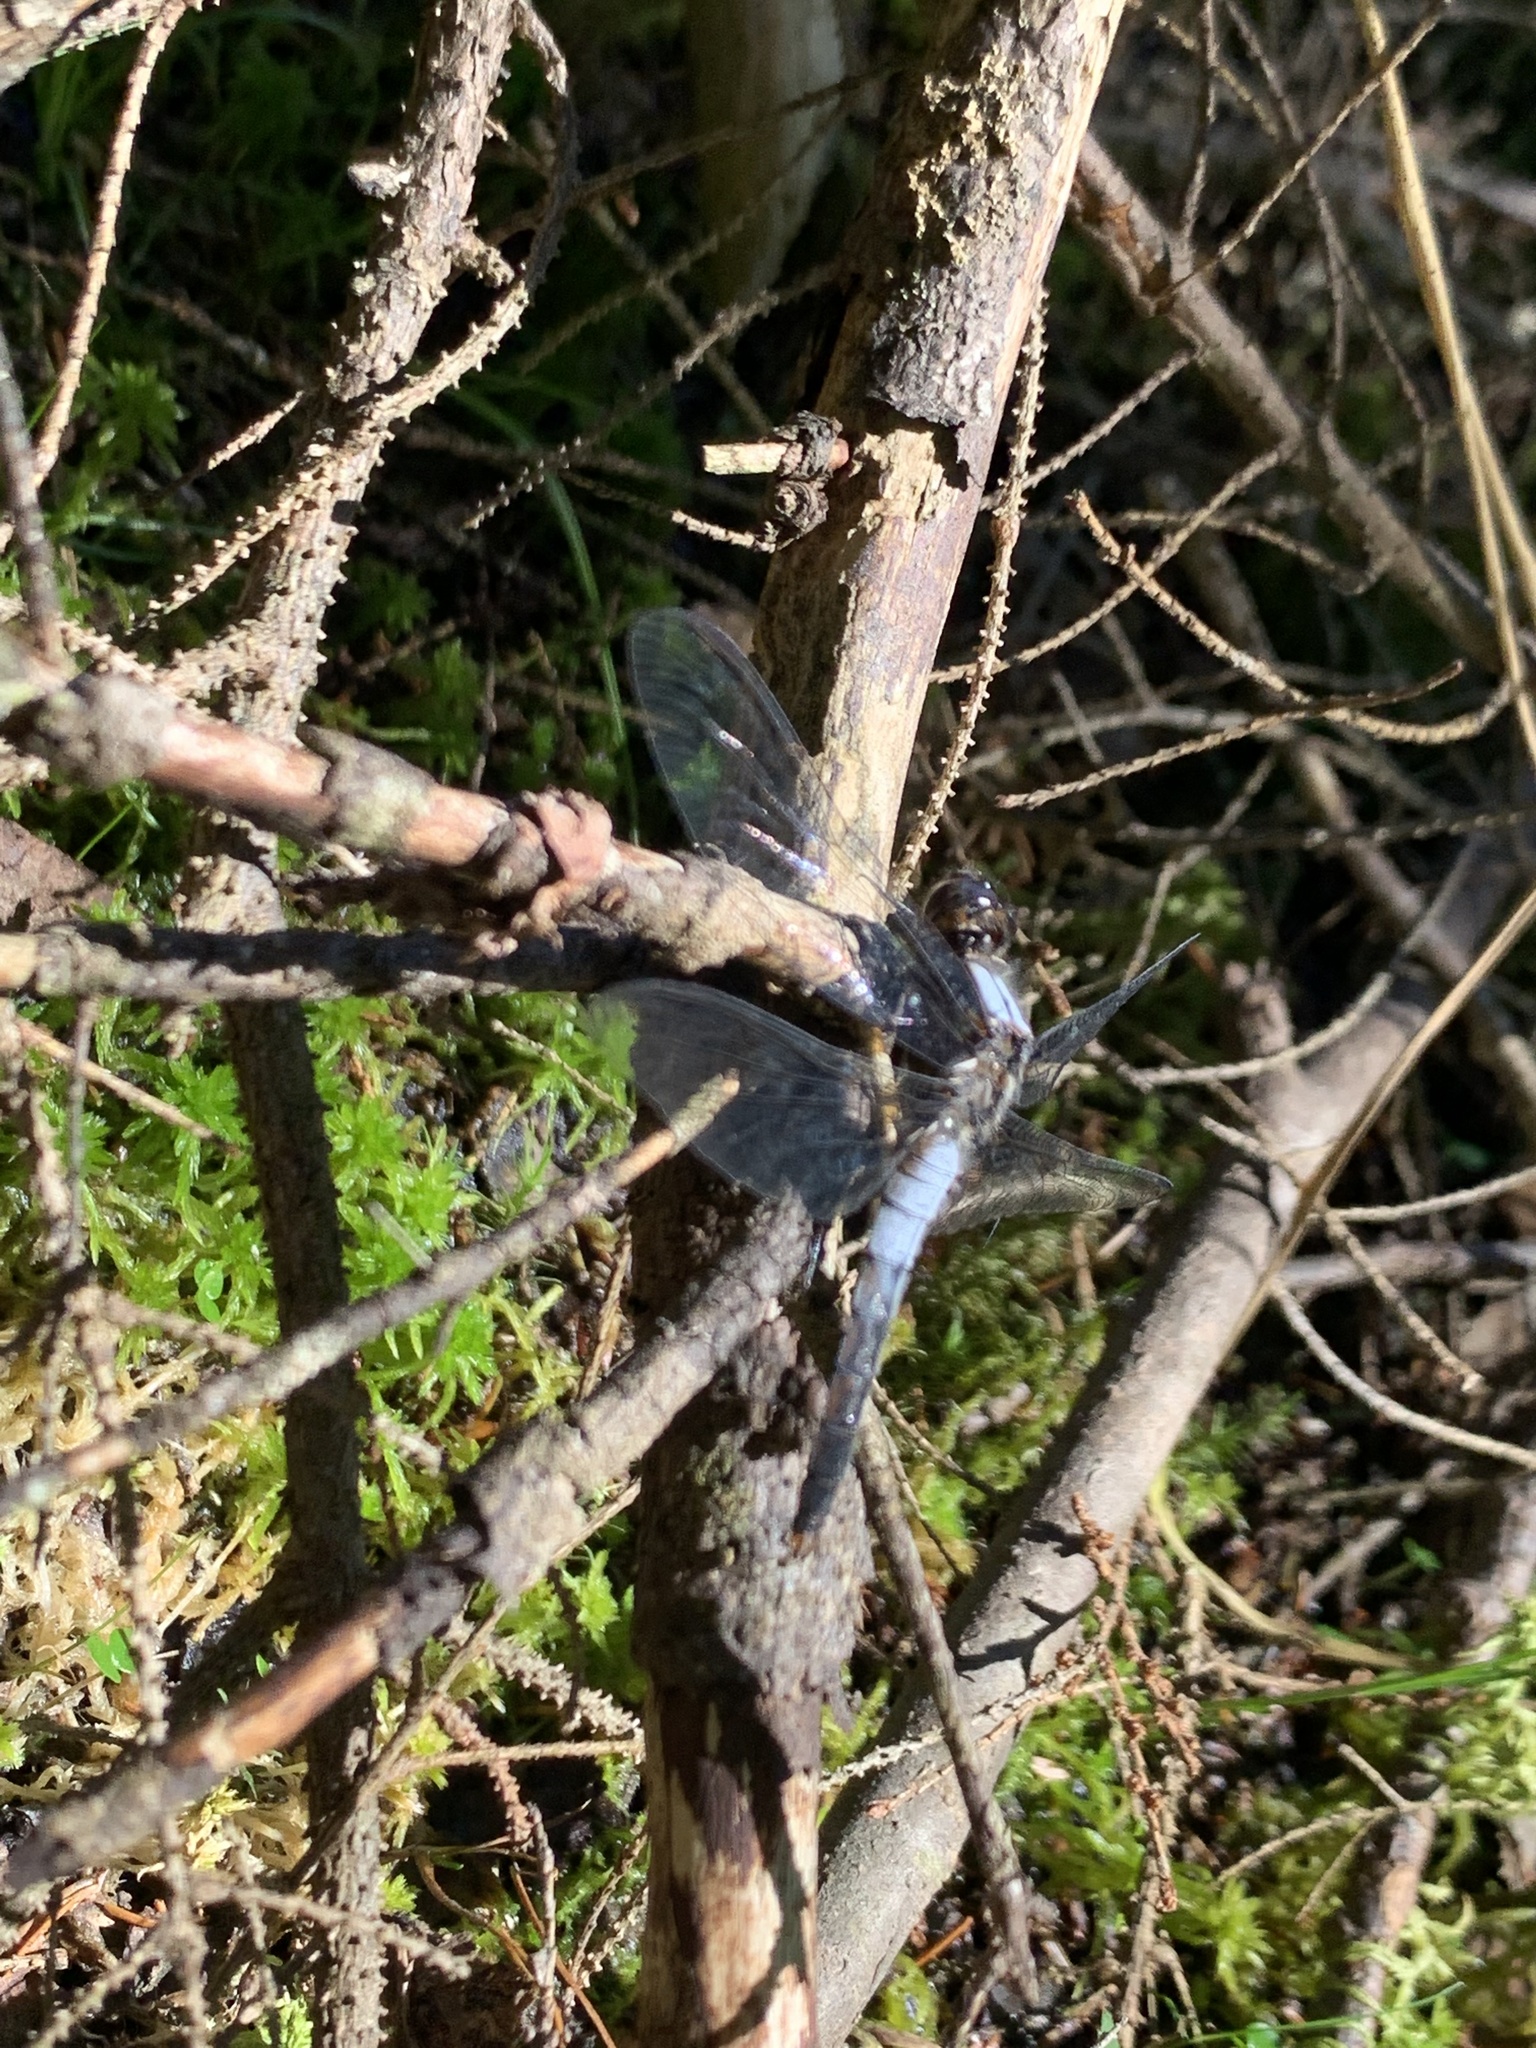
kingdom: Animalia
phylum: Arthropoda
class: Insecta
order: Odonata
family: Libellulidae
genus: Ladona
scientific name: Ladona julia
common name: Chalk-fronted corporal
